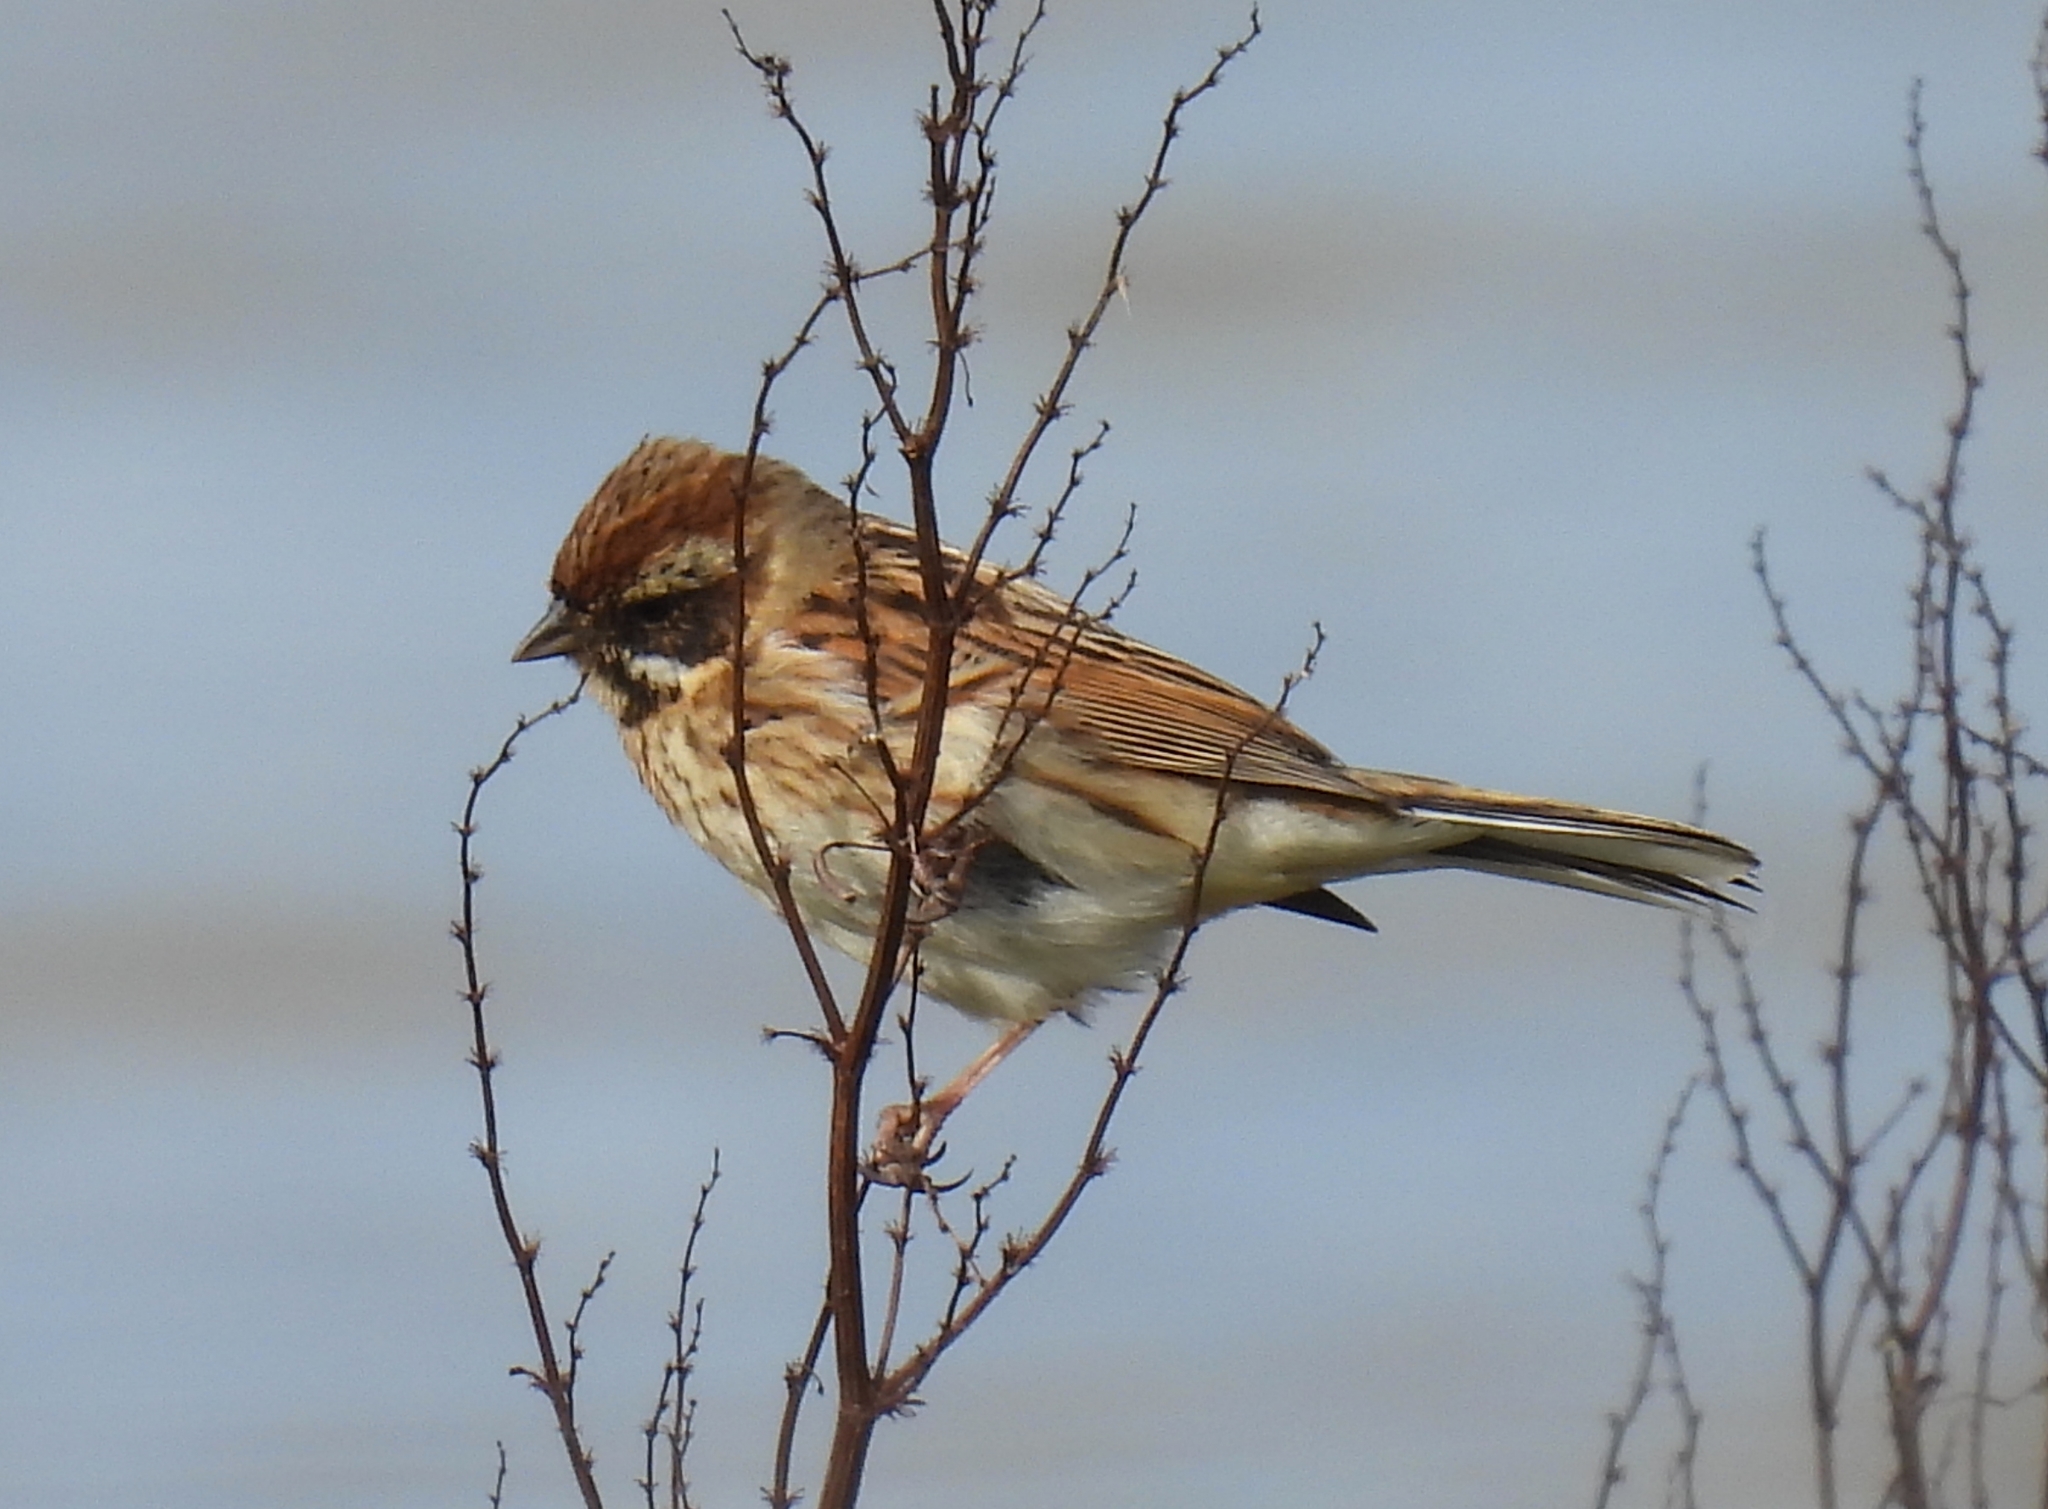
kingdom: Animalia
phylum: Chordata
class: Aves
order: Passeriformes
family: Emberizidae
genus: Emberiza
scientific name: Emberiza schoeniclus
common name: Reed bunting
